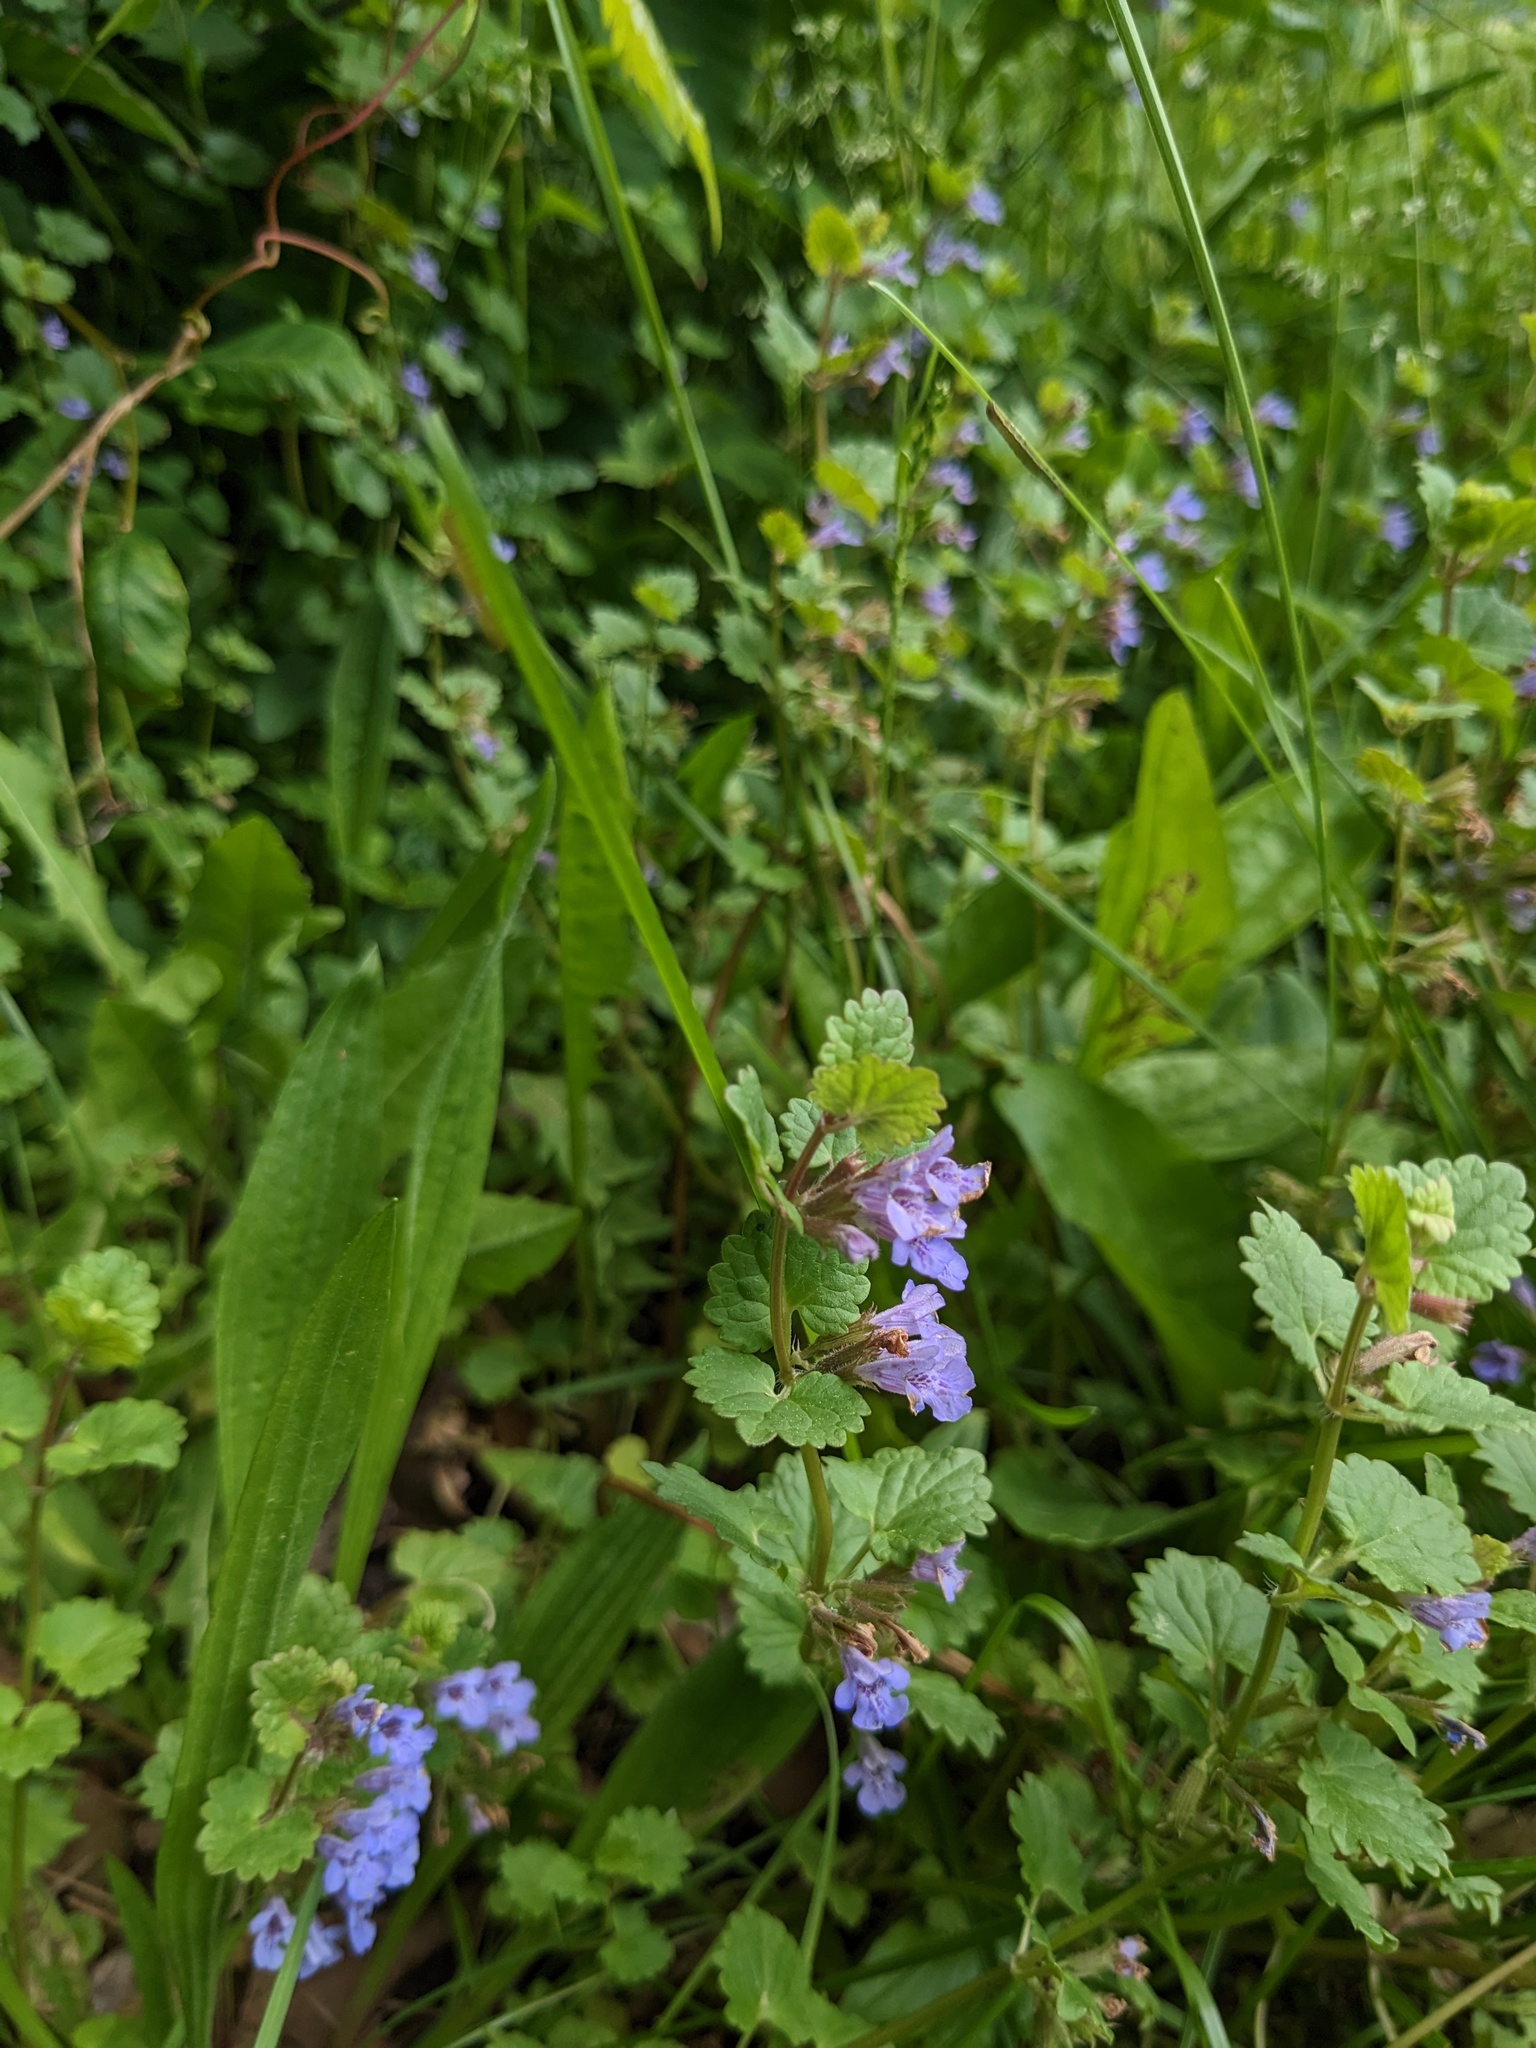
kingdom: Plantae
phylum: Tracheophyta
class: Magnoliopsida
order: Lamiales
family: Lamiaceae
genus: Glechoma
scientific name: Glechoma hederacea
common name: Ground ivy
